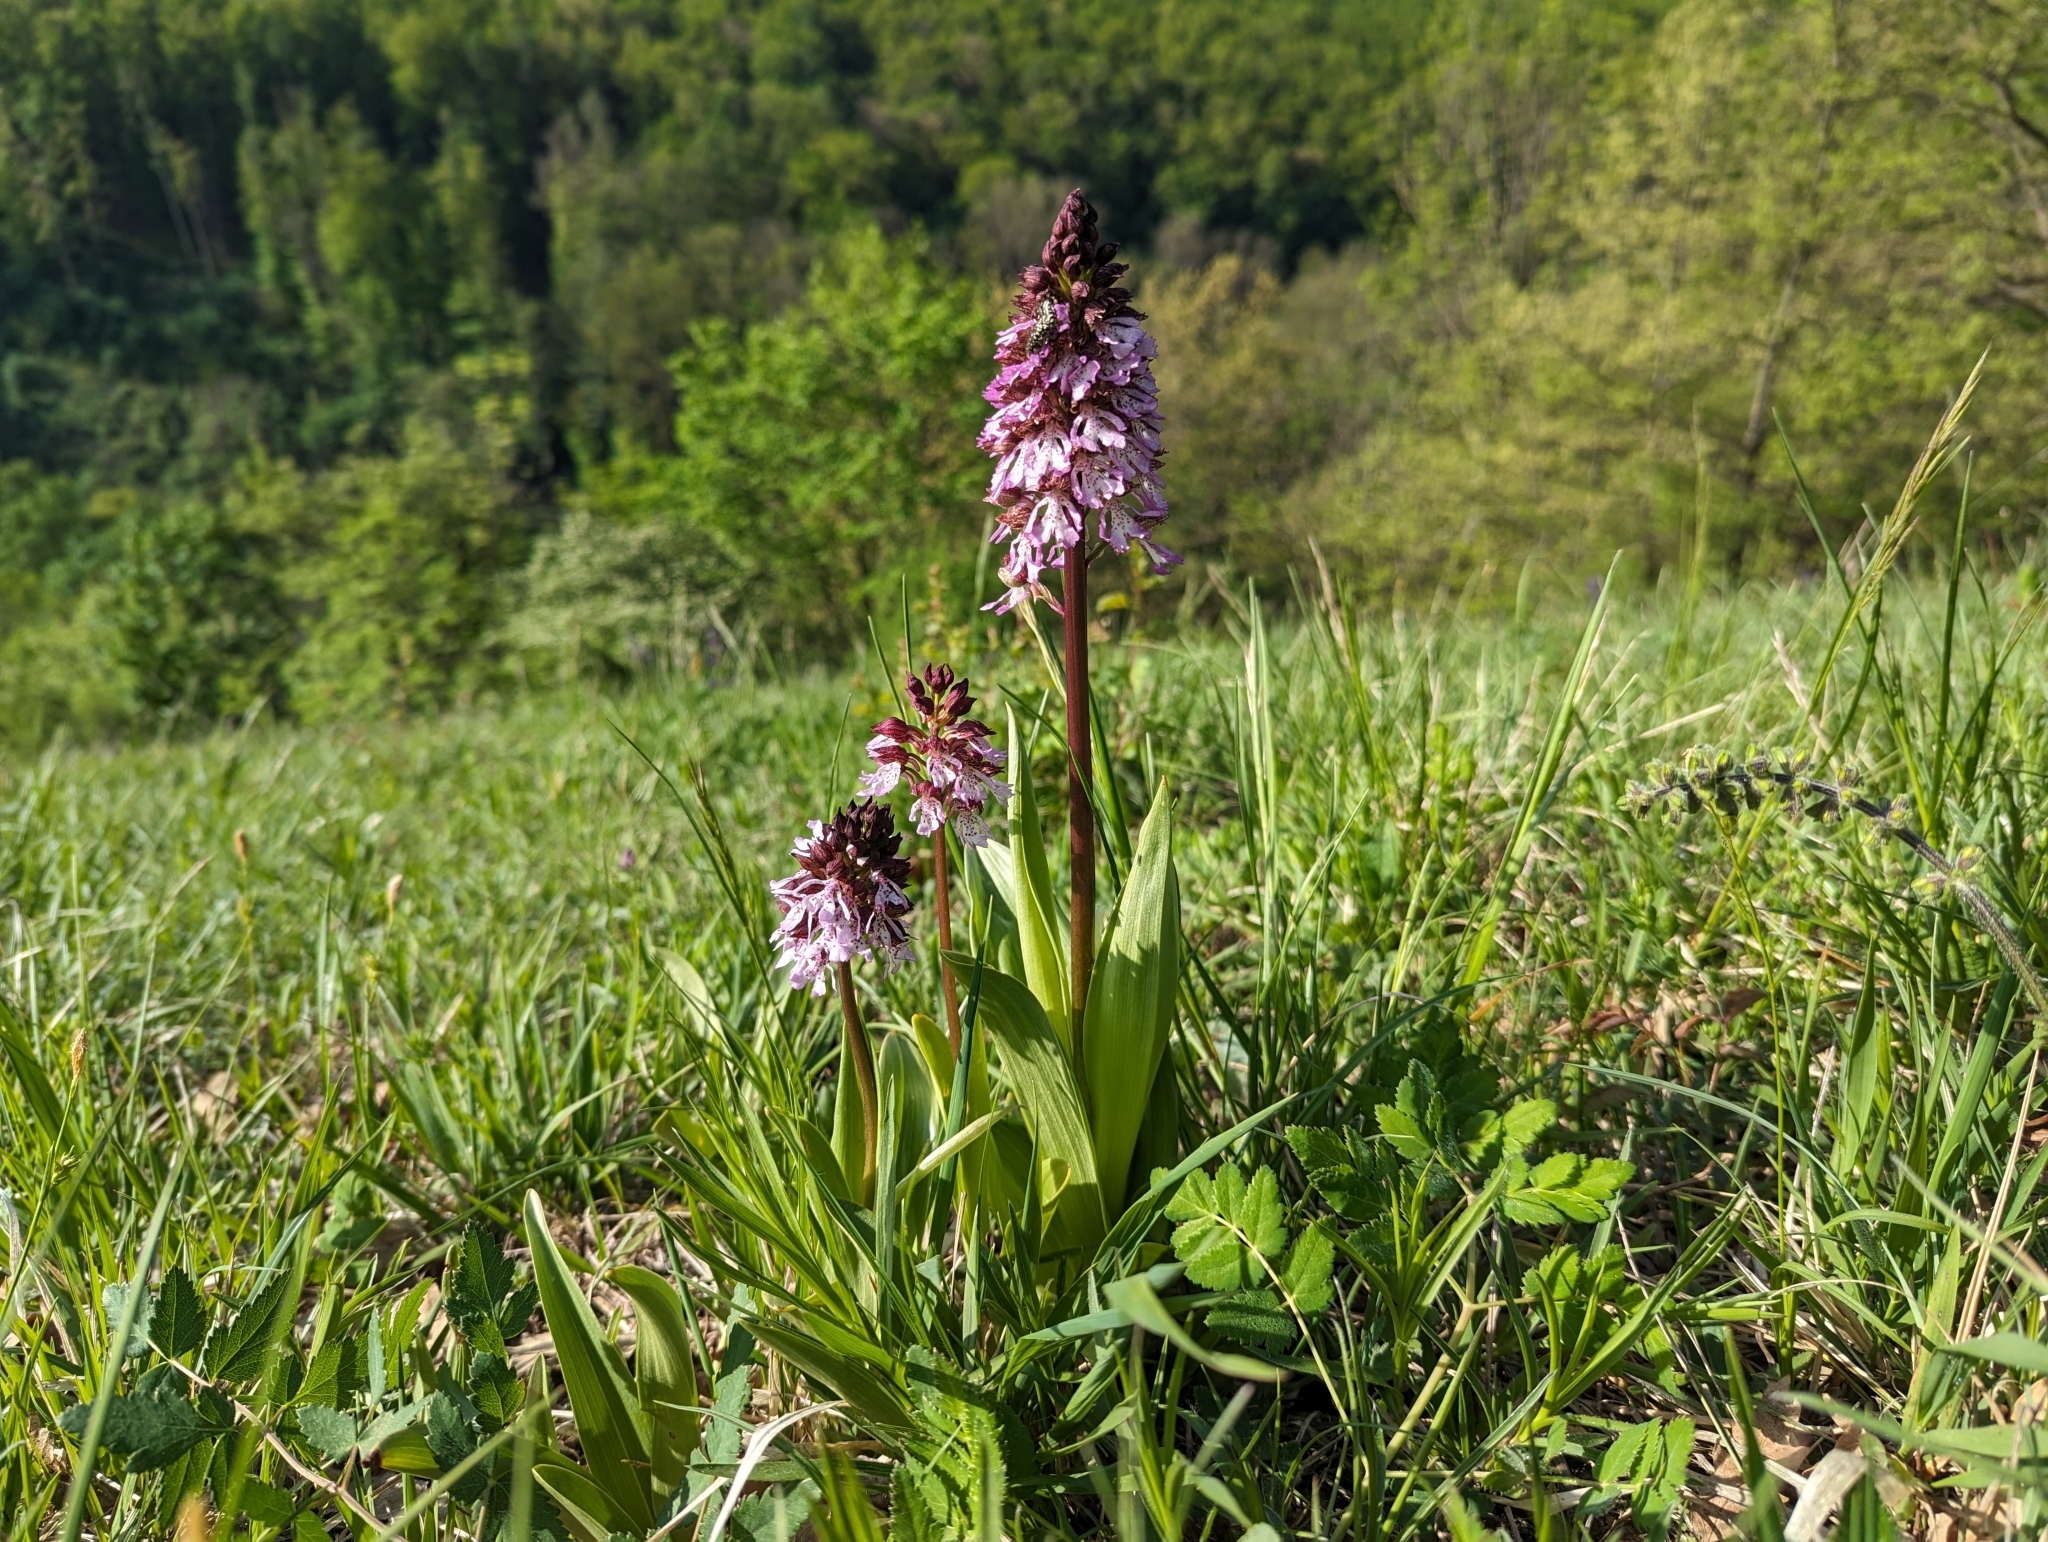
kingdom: Plantae
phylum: Tracheophyta
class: Liliopsida
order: Asparagales
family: Orchidaceae
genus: Orchis
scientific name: Orchis purpurea
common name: Lady orchid
